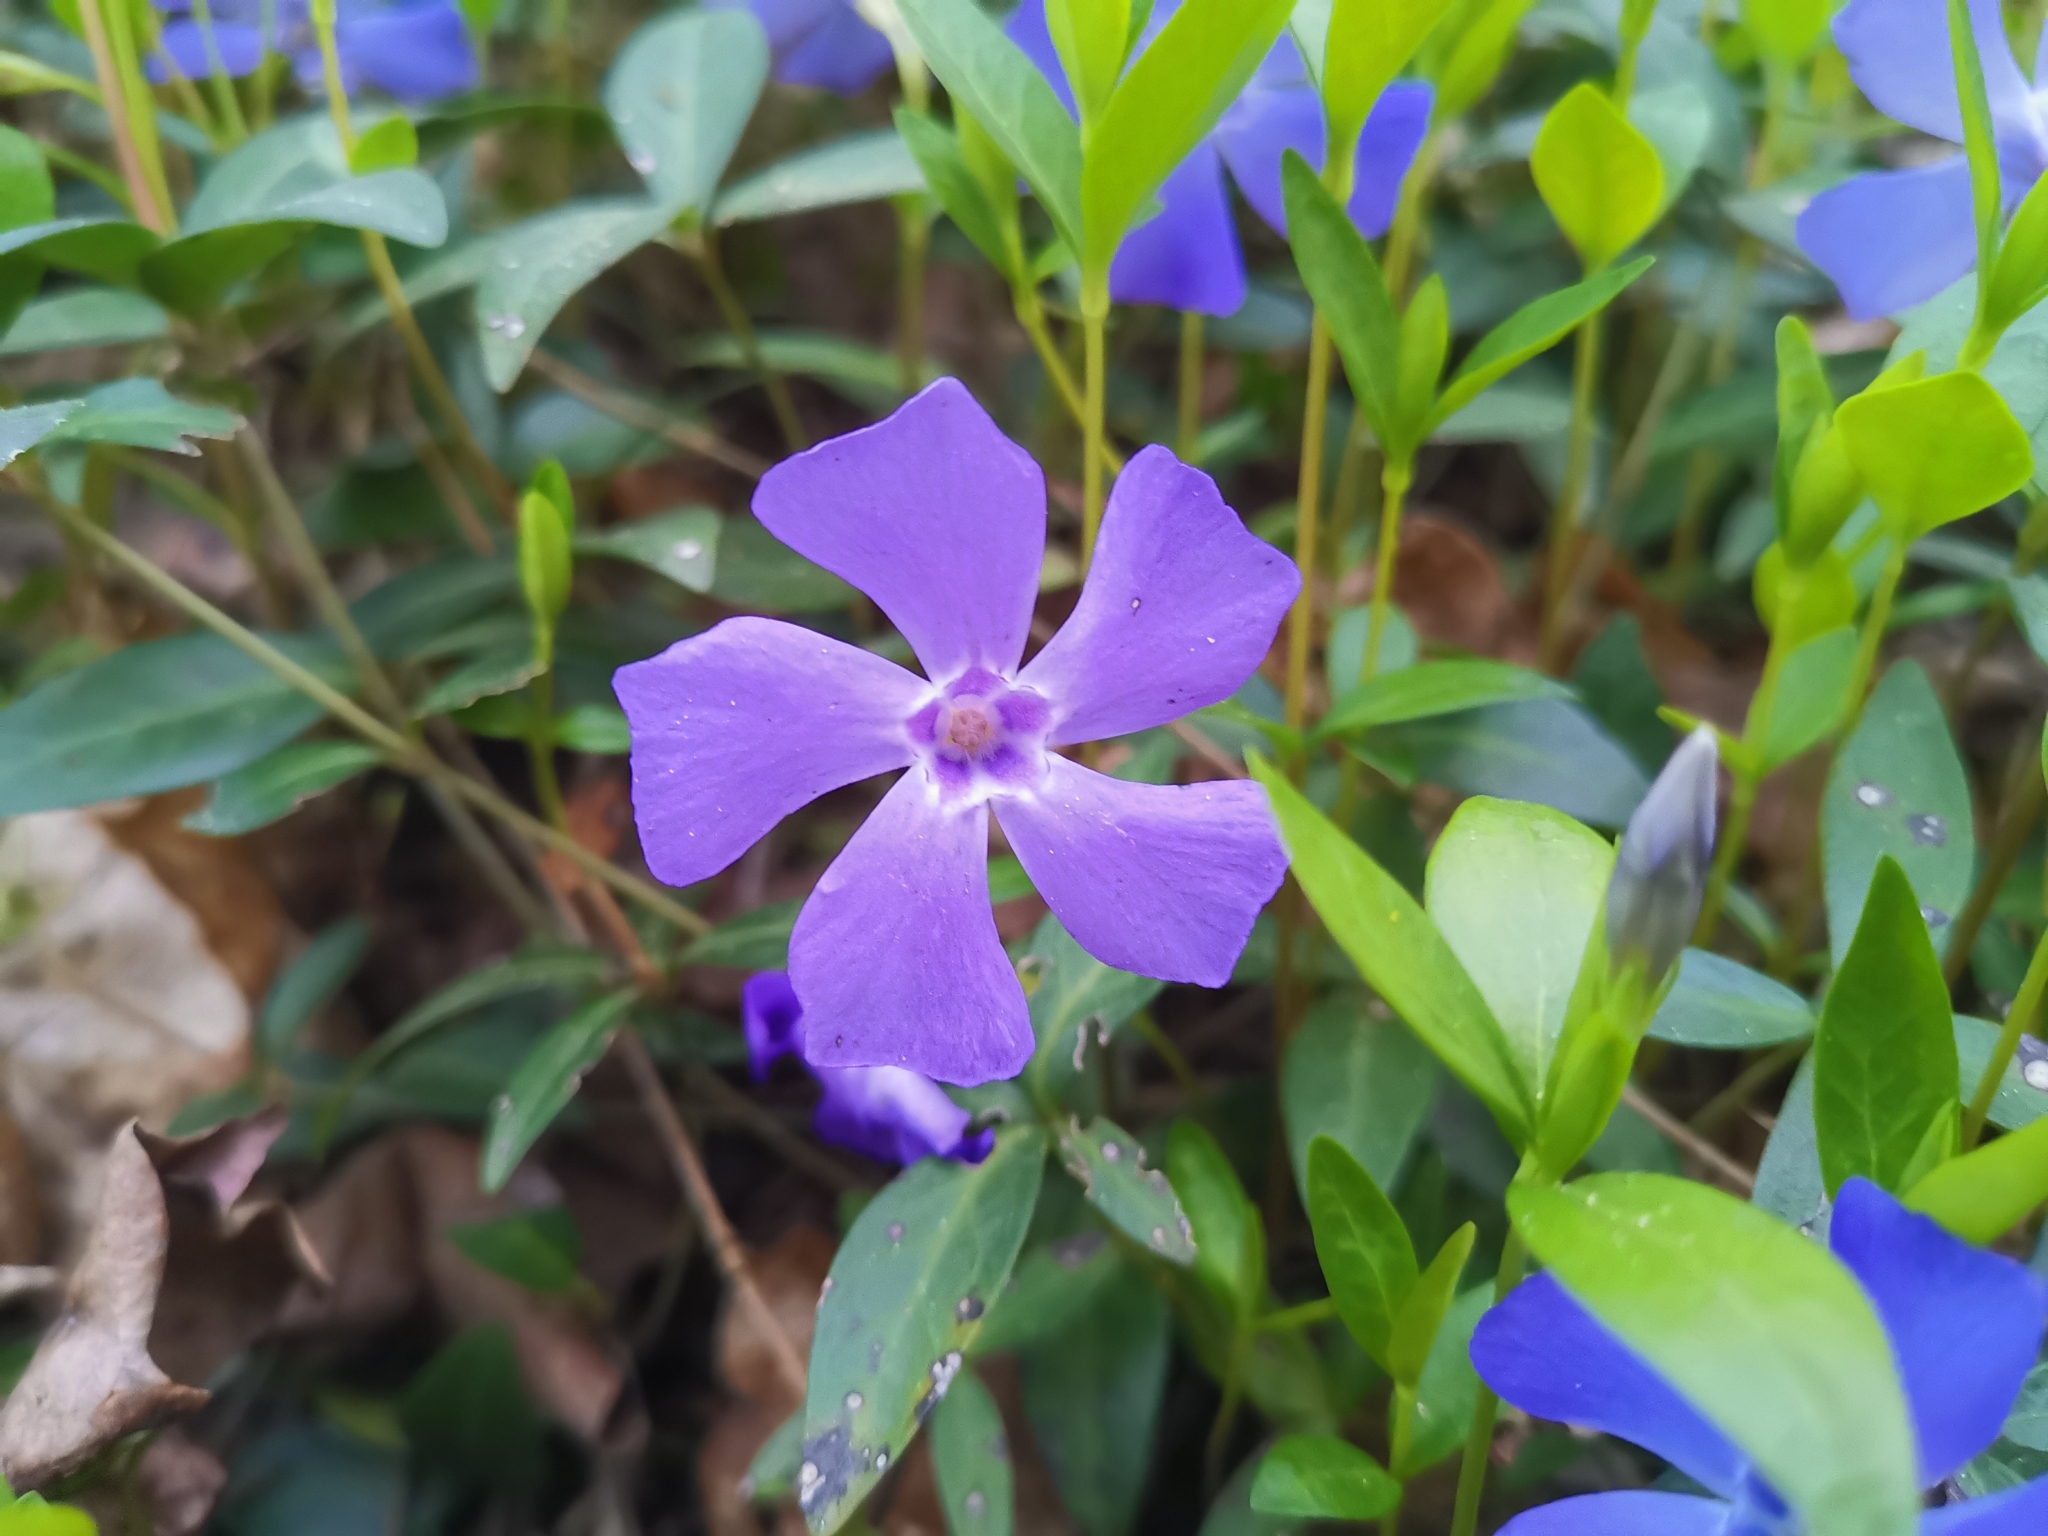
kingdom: Plantae
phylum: Tracheophyta
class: Magnoliopsida
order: Gentianales
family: Apocynaceae
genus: Vinca
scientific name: Vinca minor
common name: Lesser periwinkle
